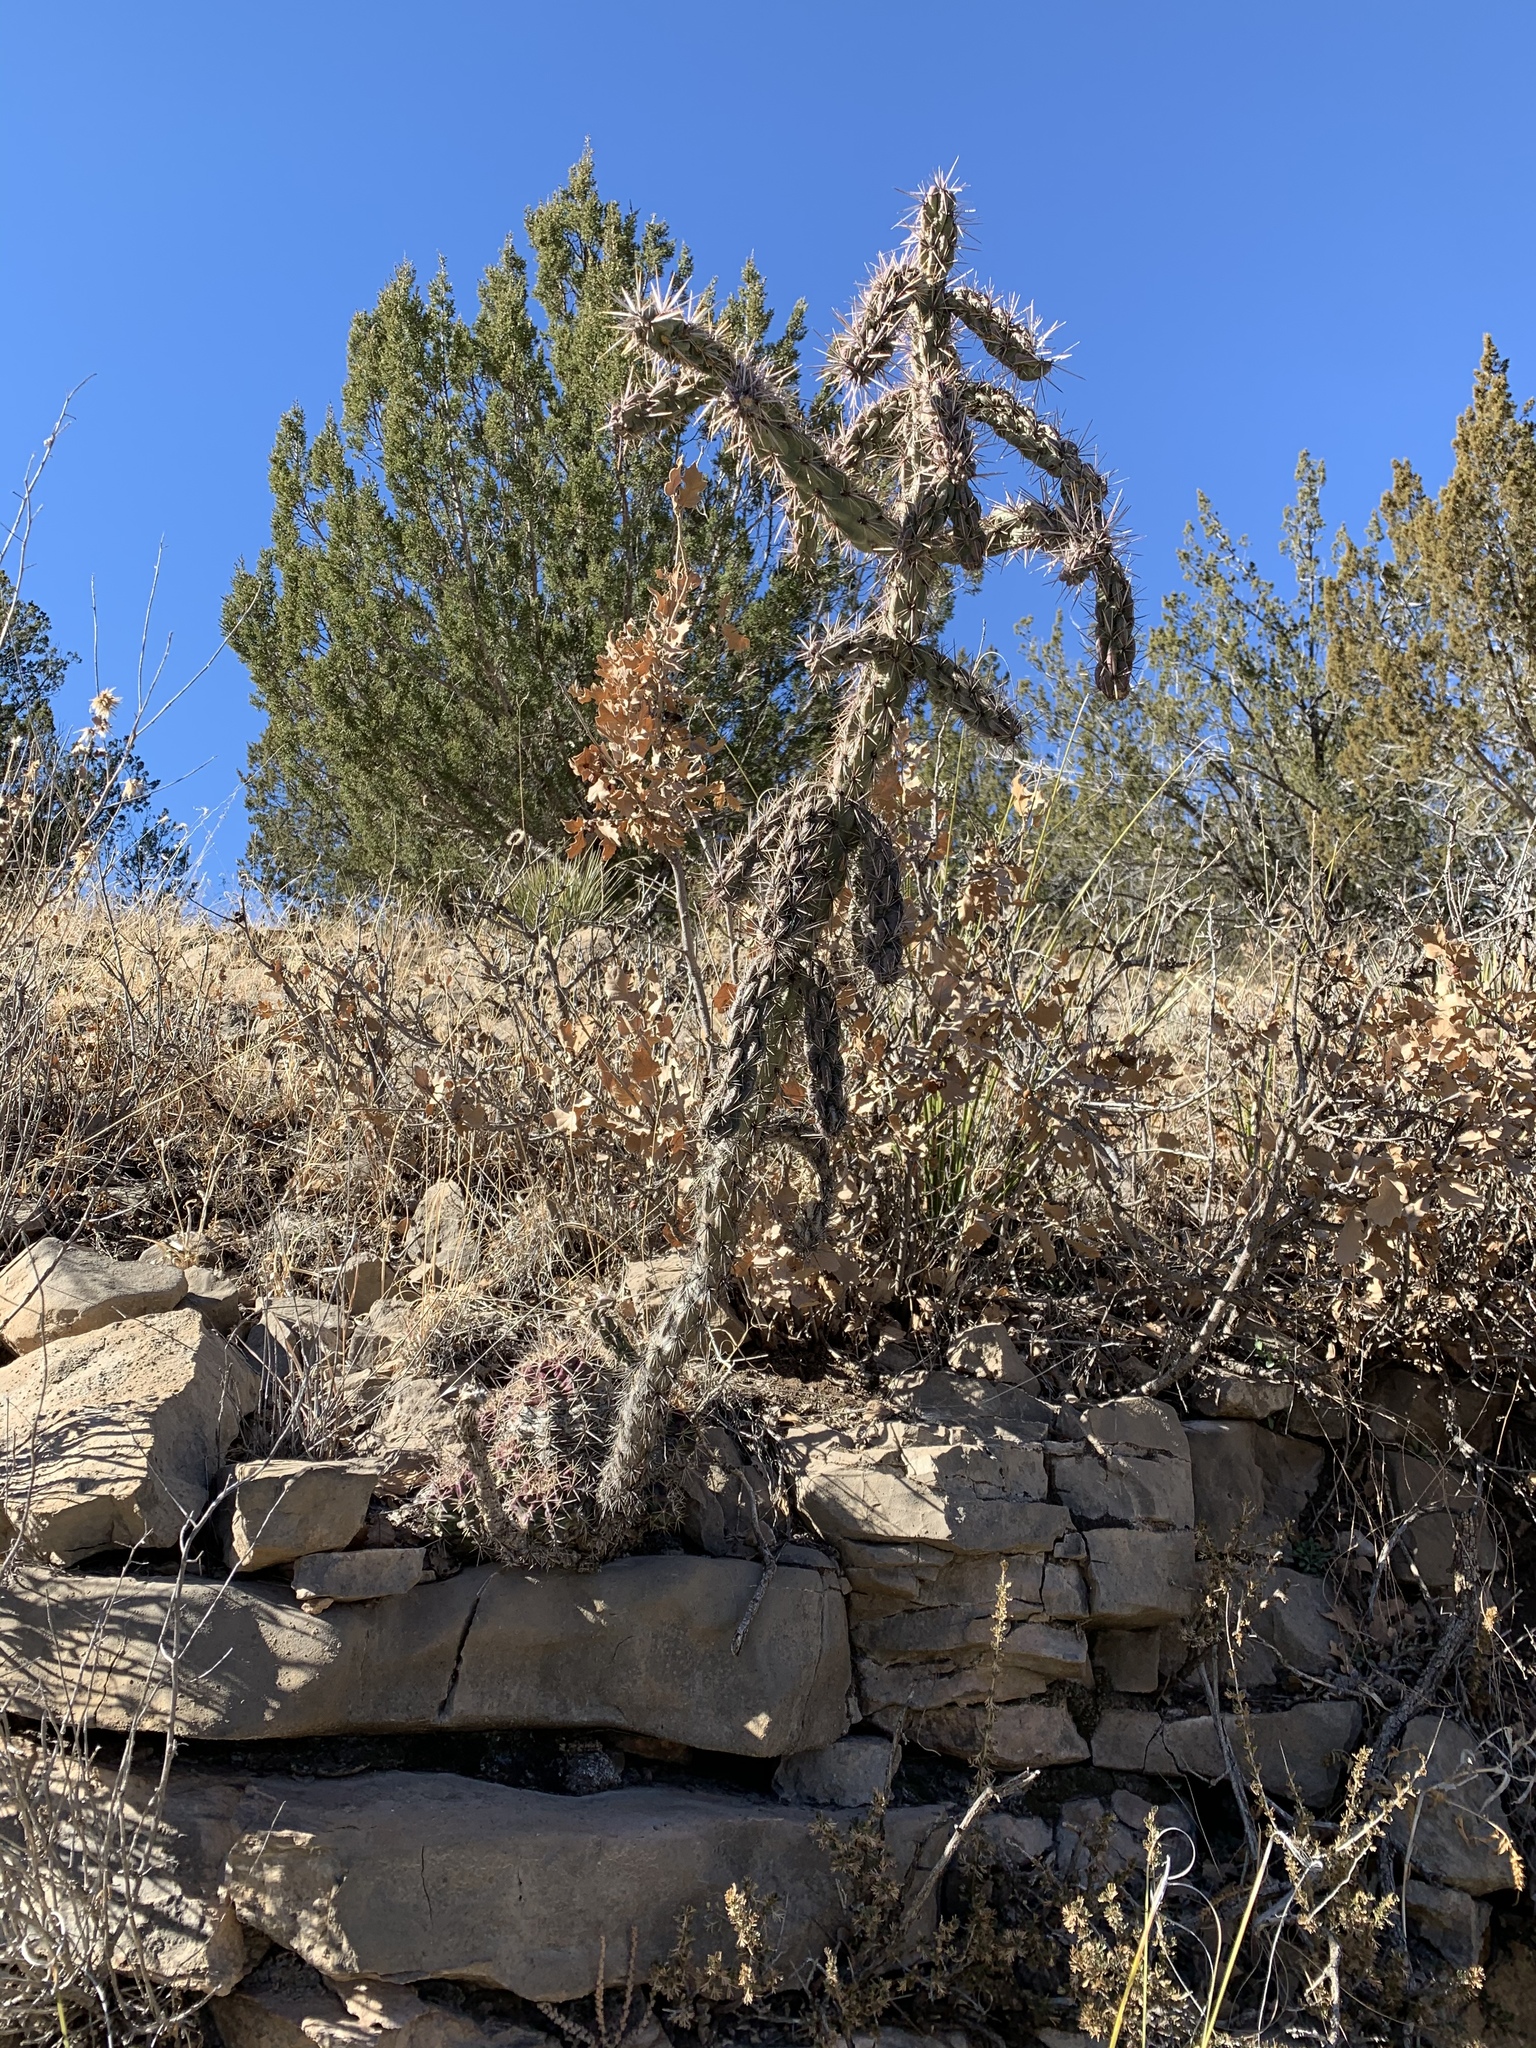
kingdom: Plantae
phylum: Tracheophyta
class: Magnoliopsida
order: Caryophyllales
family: Cactaceae
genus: Cylindropuntia
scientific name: Cylindropuntia imbricata
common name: Candelabrum cactus
